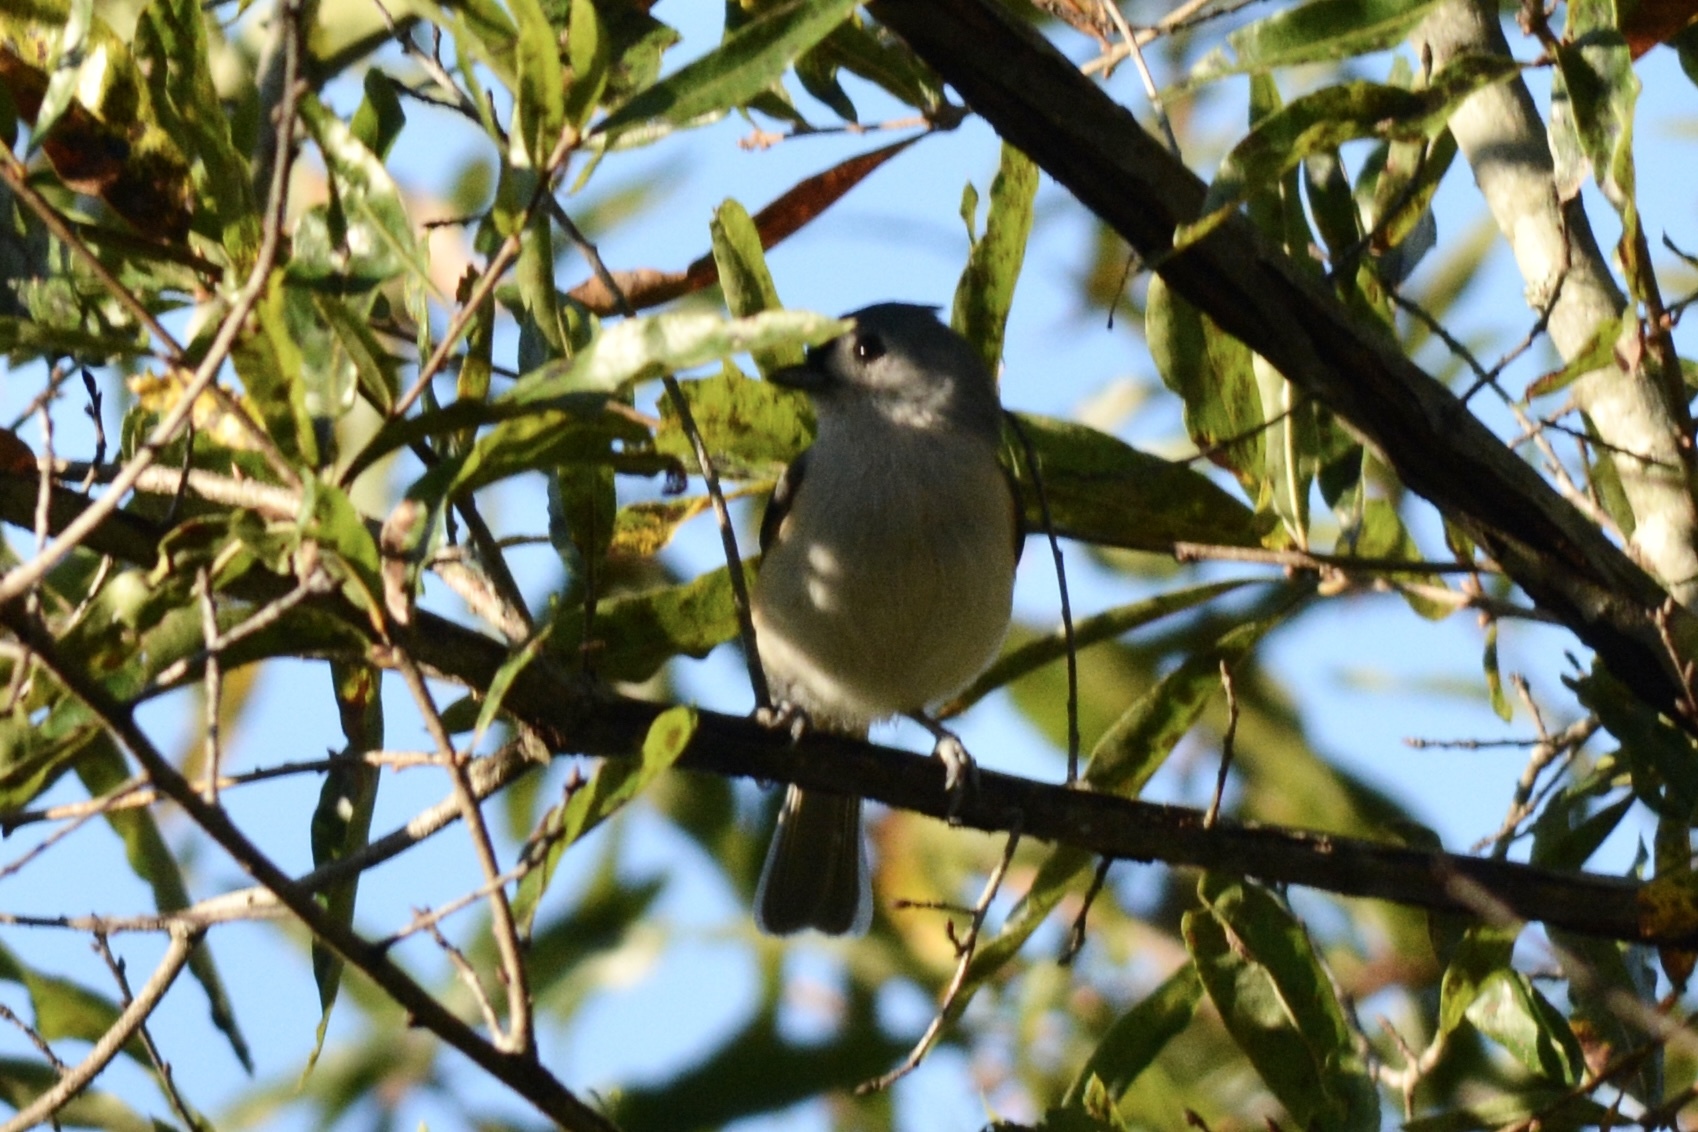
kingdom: Animalia
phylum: Chordata
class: Aves
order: Passeriformes
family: Paridae
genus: Baeolophus
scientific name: Baeolophus bicolor
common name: Tufted titmouse
